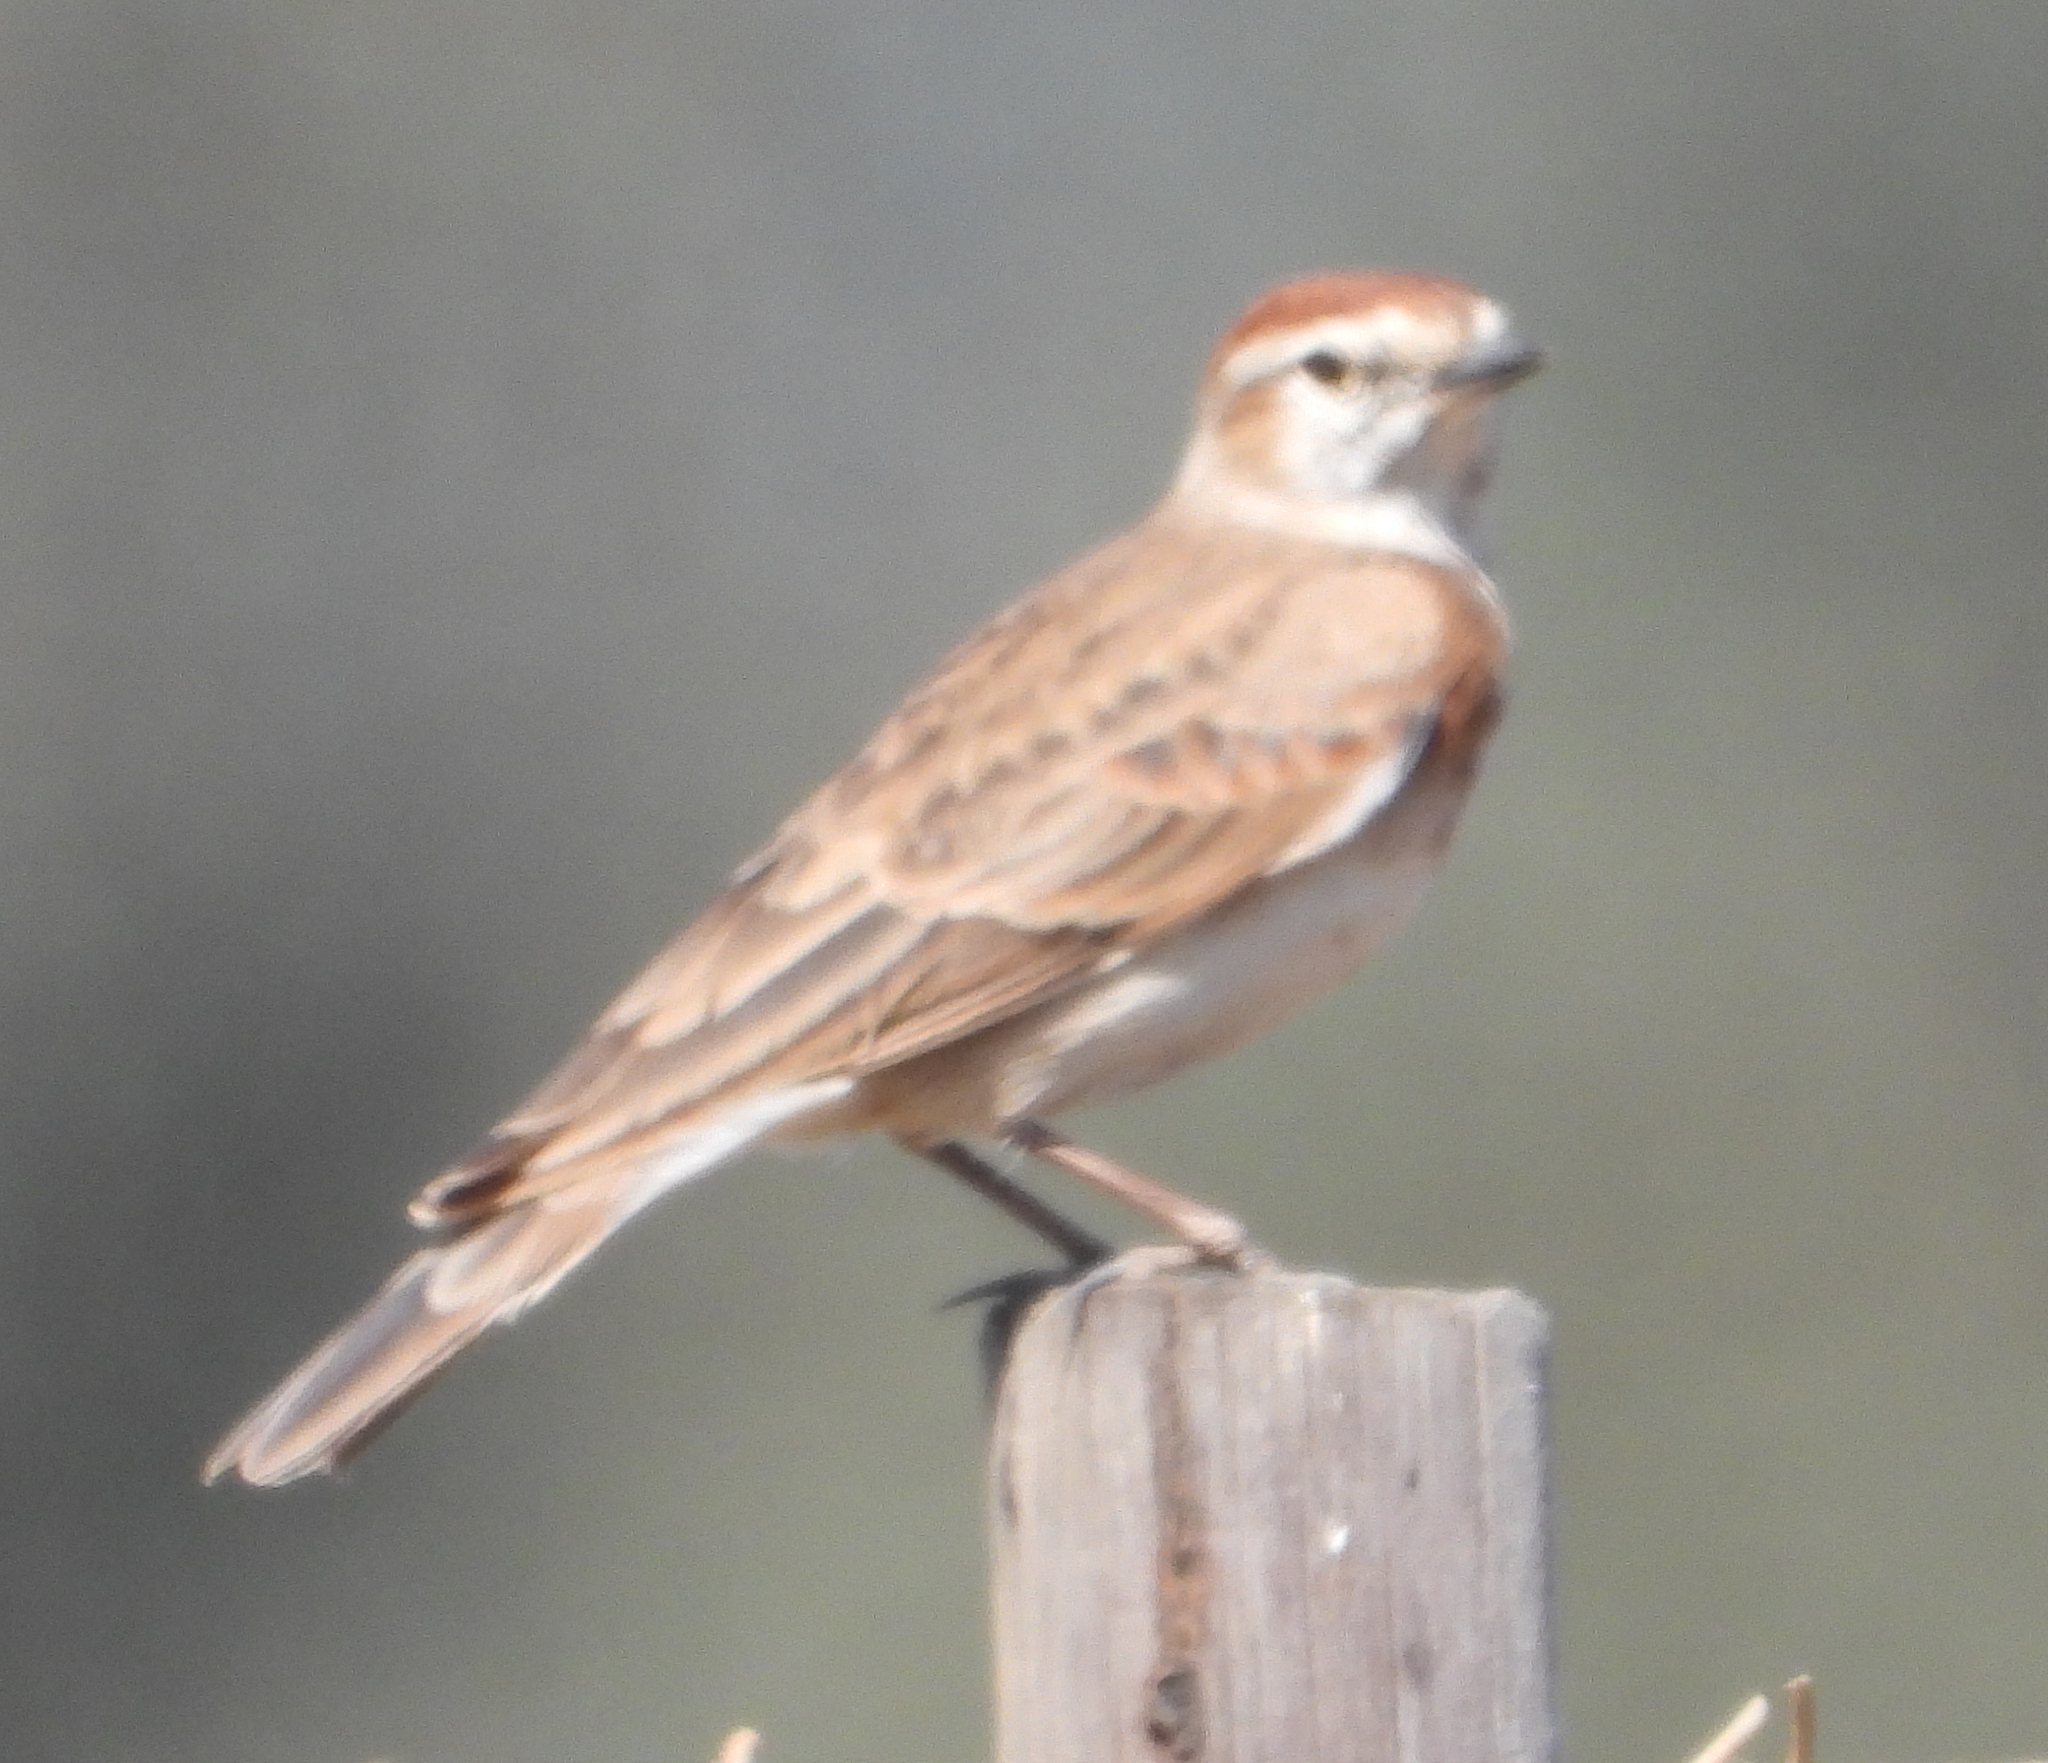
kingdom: Animalia
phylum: Chordata
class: Aves
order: Passeriformes
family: Alaudidae
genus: Calandrella
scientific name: Calandrella cinerea
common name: Red-capped lark
